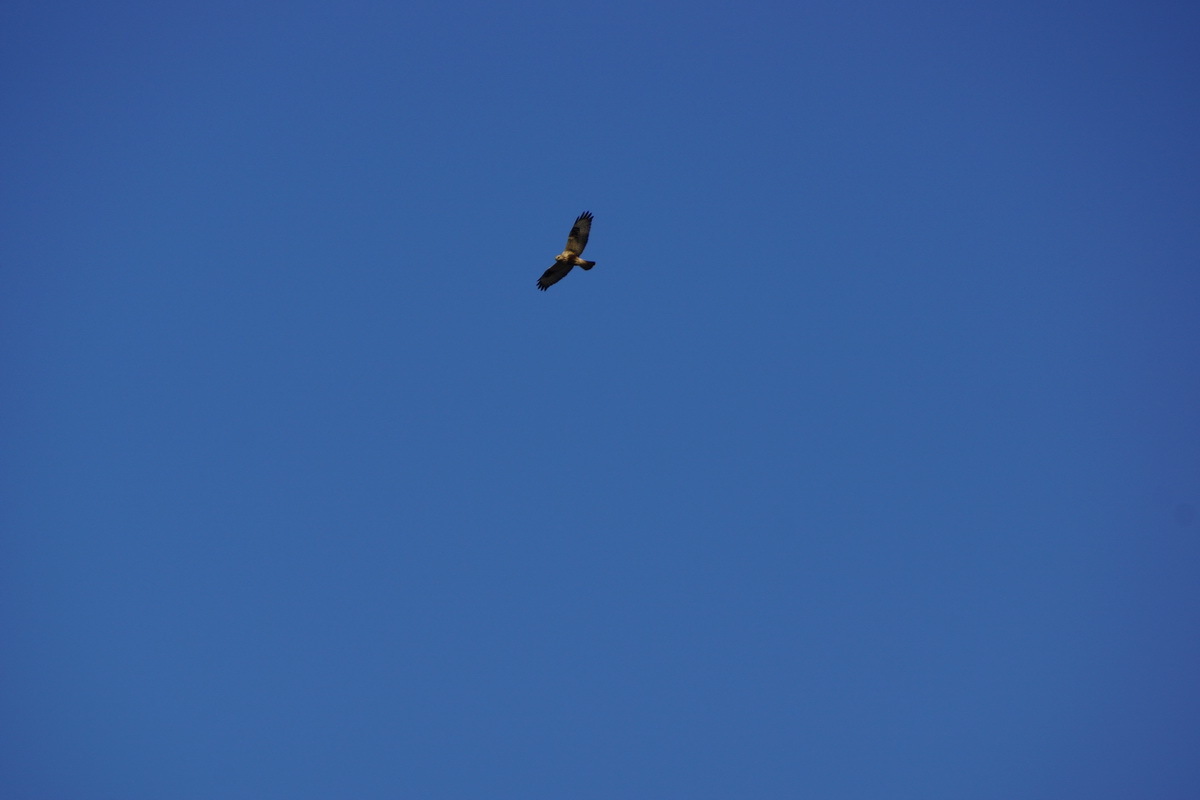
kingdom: Animalia
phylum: Chordata
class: Aves
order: Accipitriformes
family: Accipitridae
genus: Buteo
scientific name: Buteo lagopus
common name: Rough-legged buzzard
